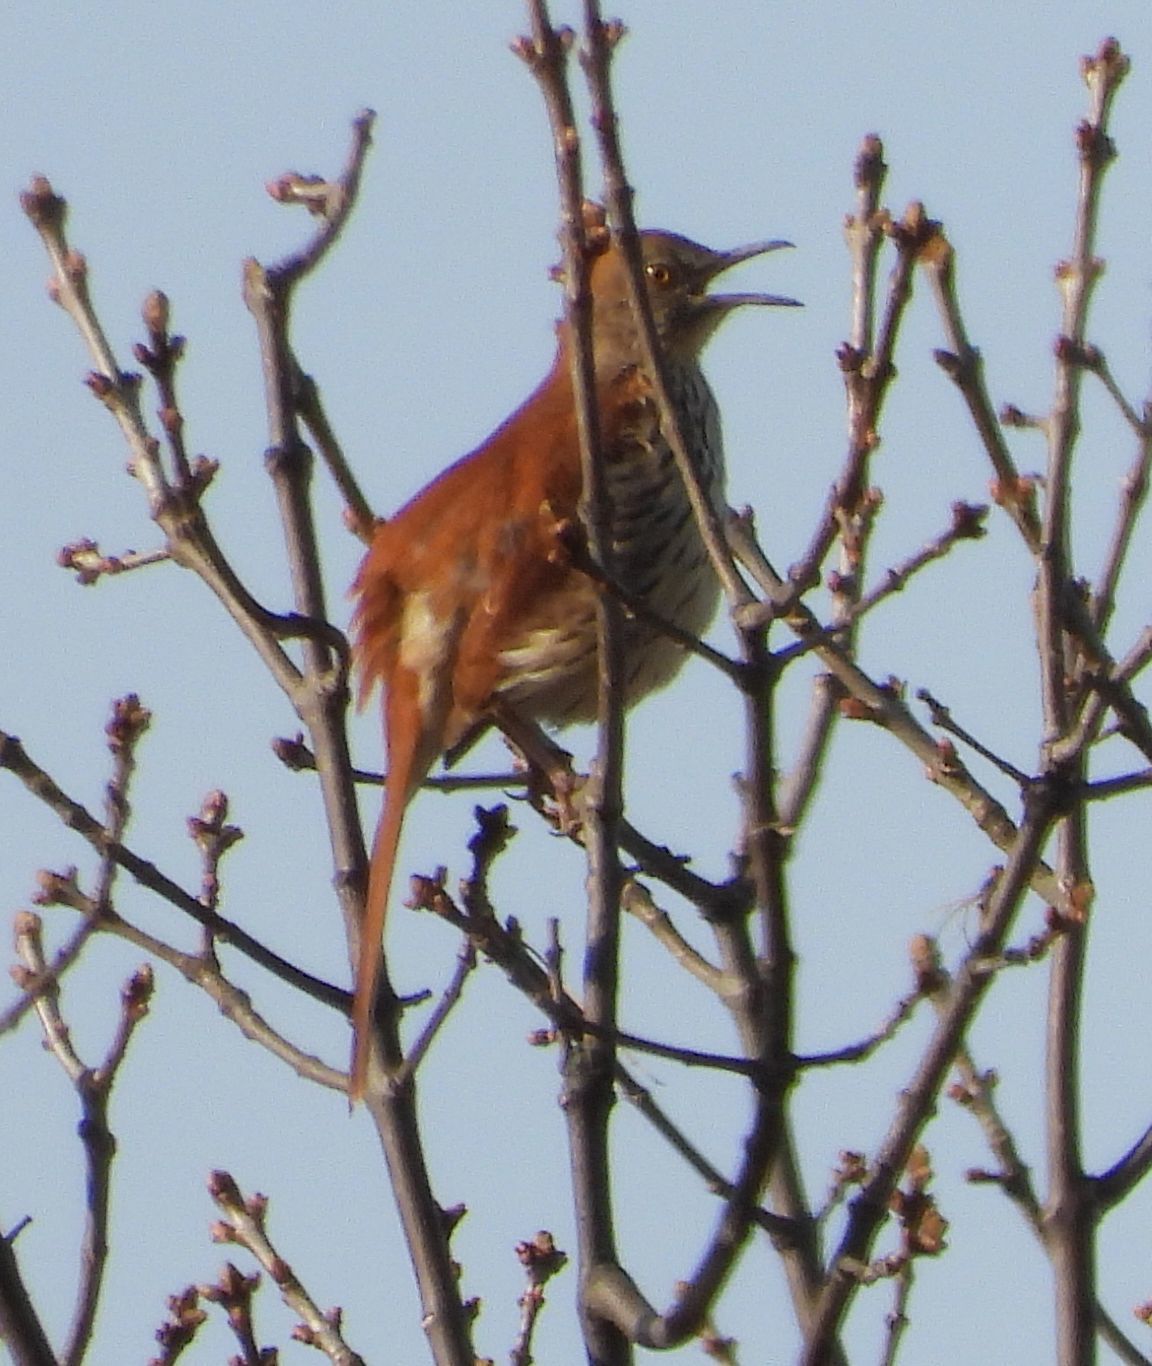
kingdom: Animalia
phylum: Chordata
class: Aves
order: Passeriformes
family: Mimidae
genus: Toxostoma
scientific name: Toxostoma rufum
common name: Brown thrasher
